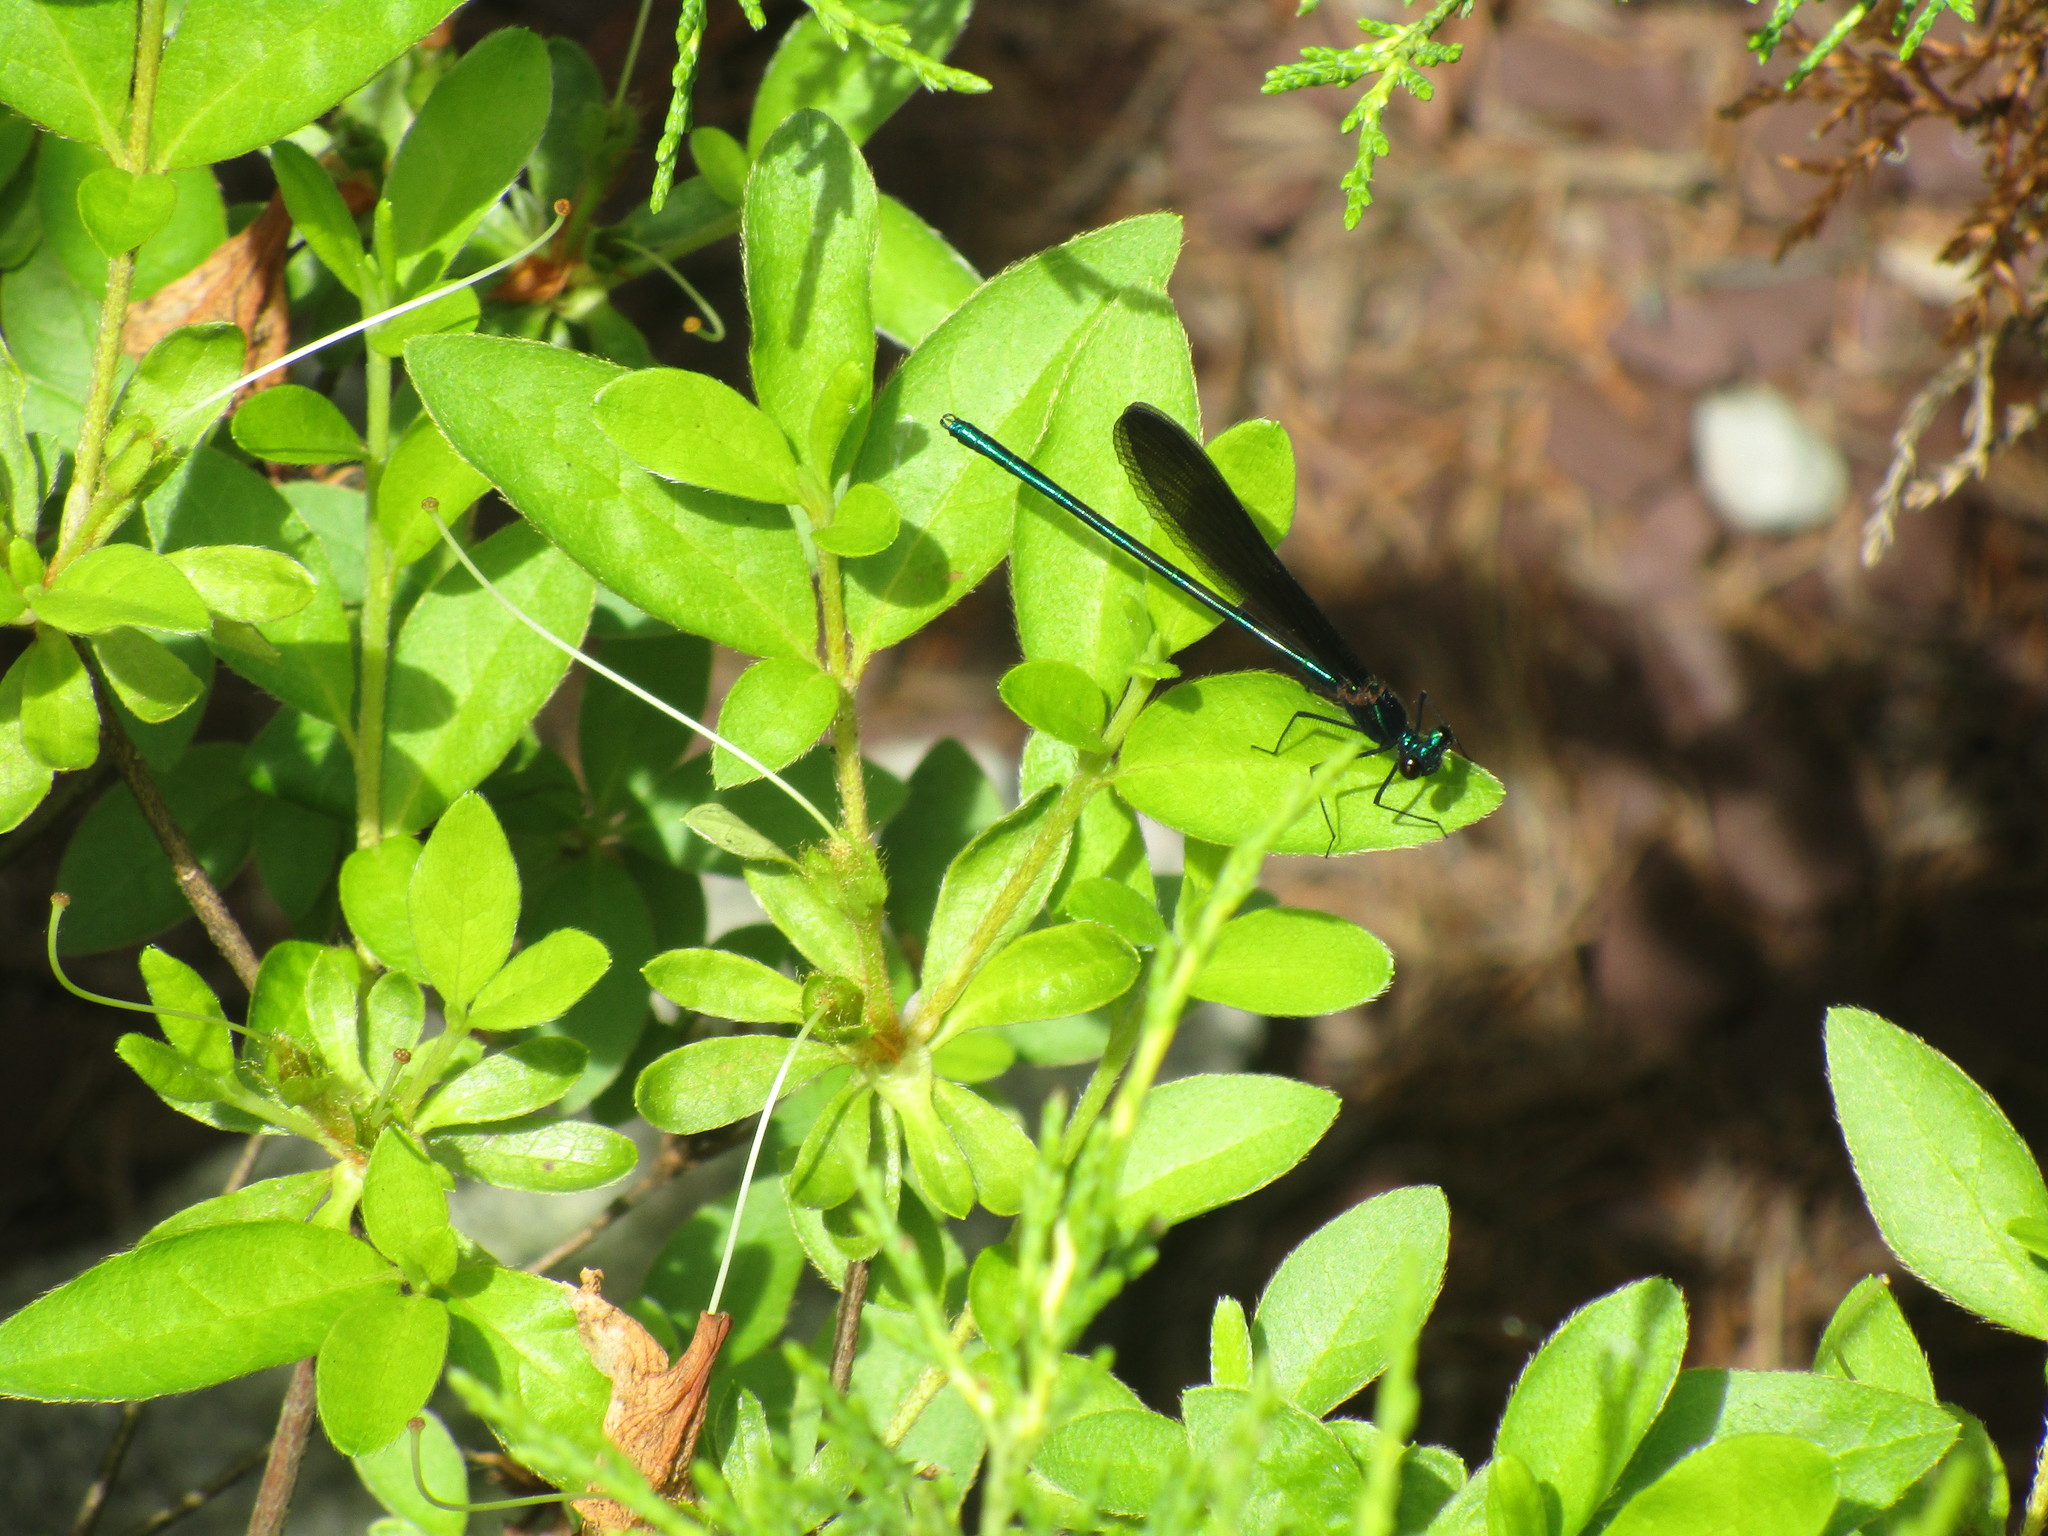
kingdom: Animalia
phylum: Arthropoda
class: Insecta
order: Odonata
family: Calopterygidae
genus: Calopteryx
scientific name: Calopteryx maculata
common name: Ebony jewelwing
